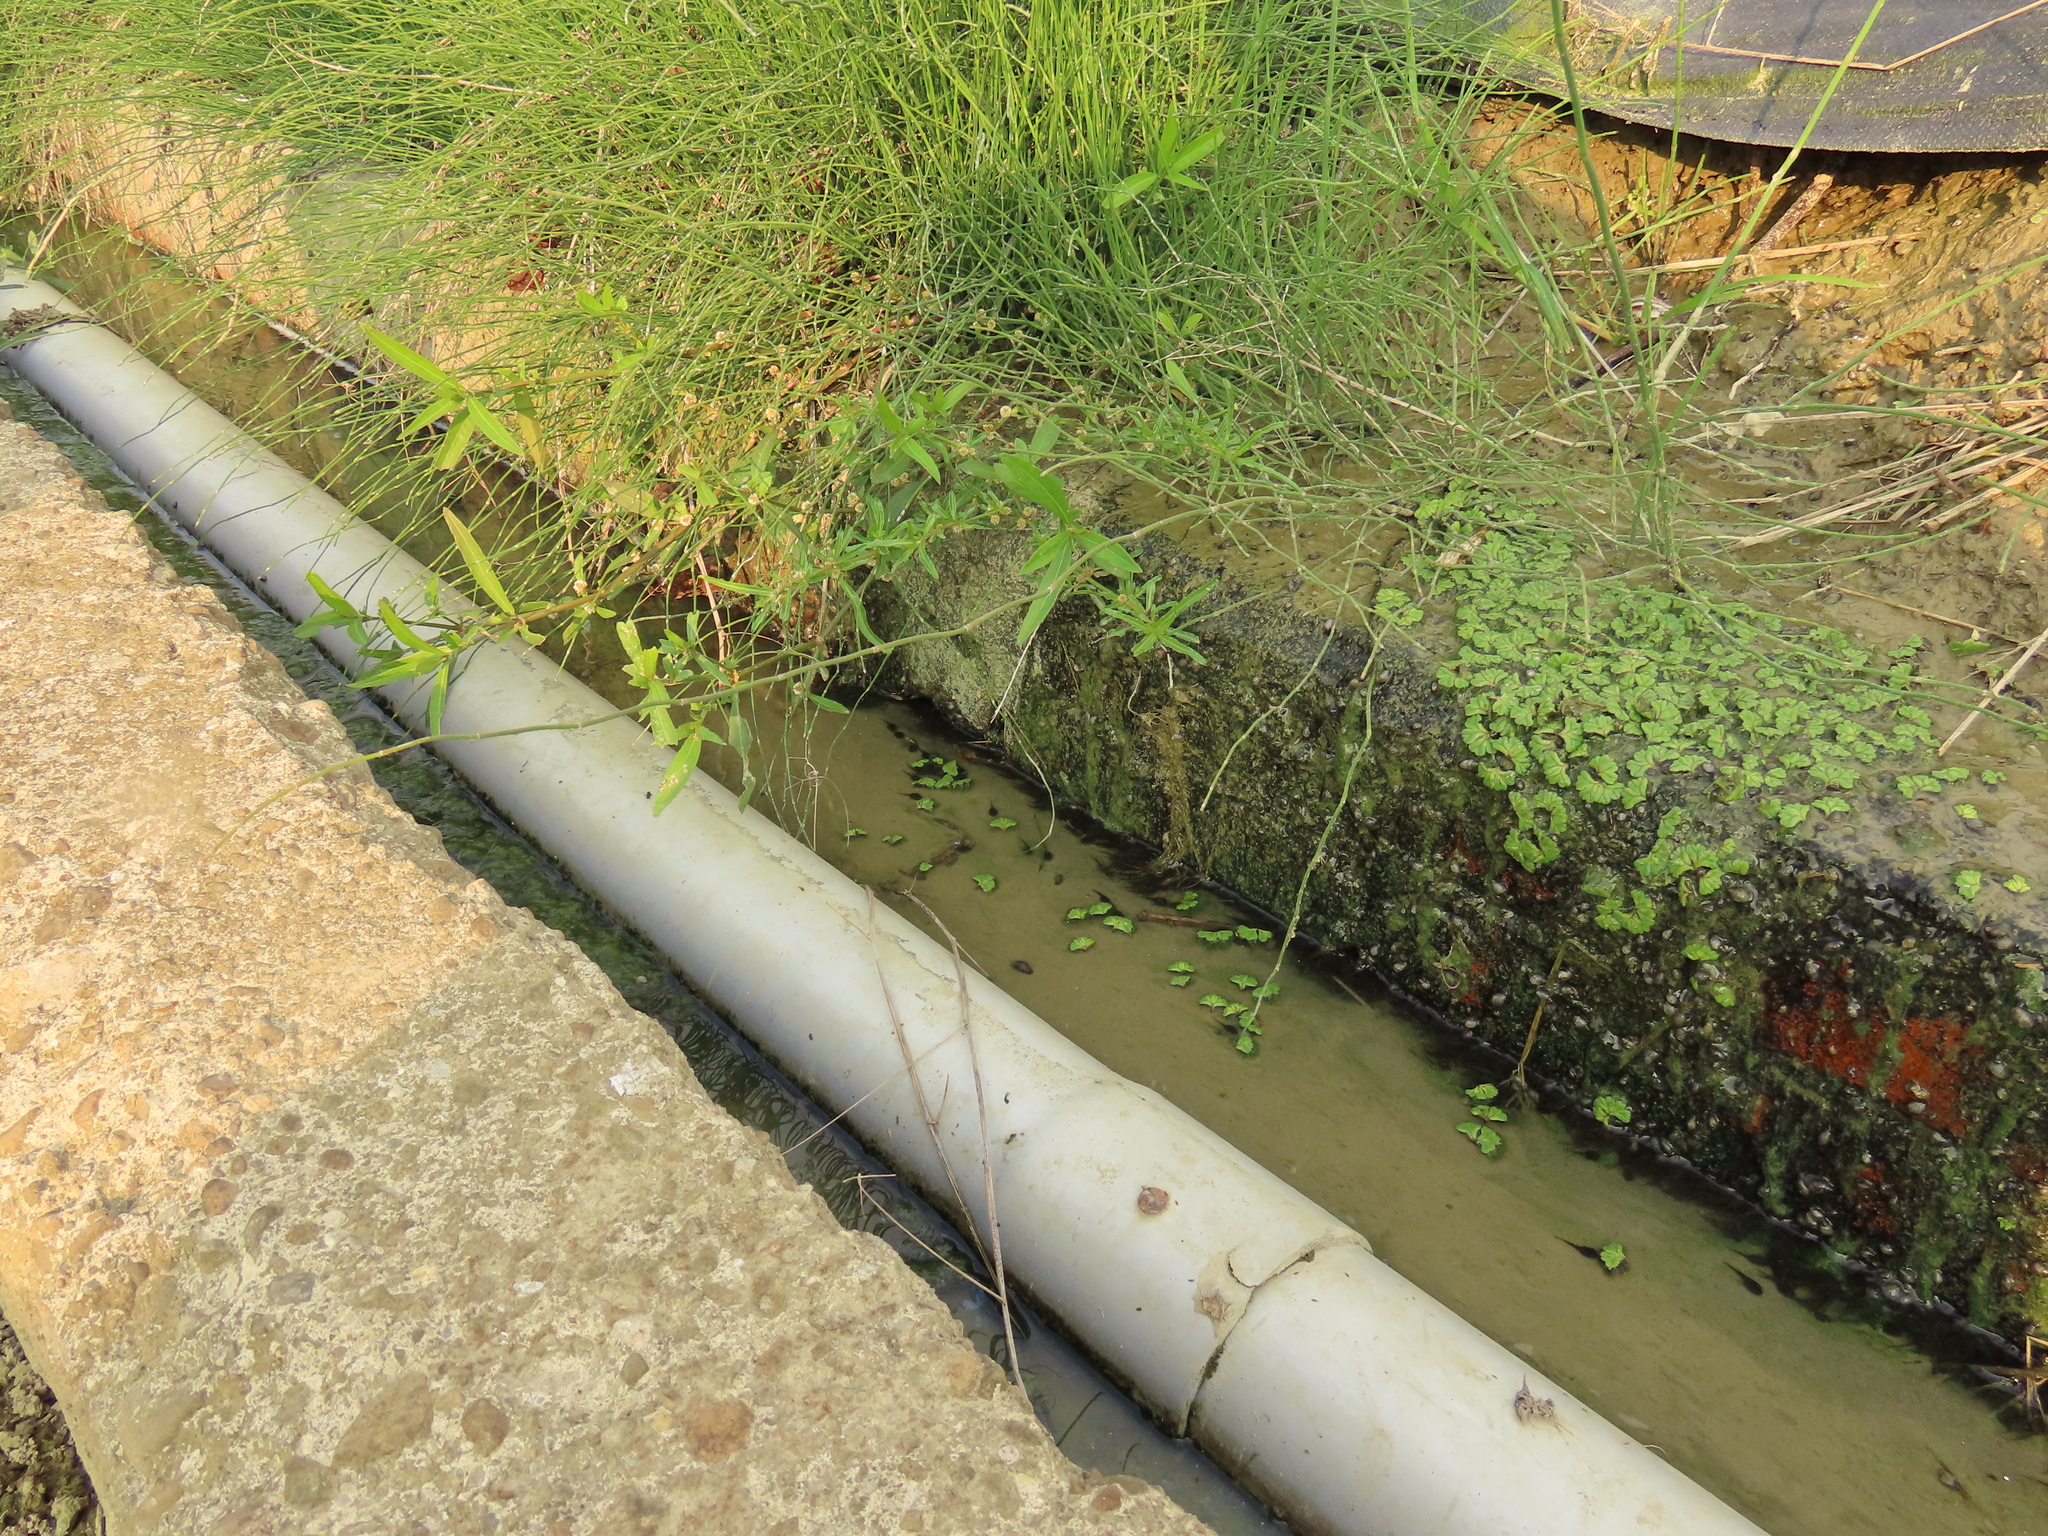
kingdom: Plantae
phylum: Marchantiophyta
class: Marchantiopsida
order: Marchantiales
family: Ricciaceae
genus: Ricciocarpos
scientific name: Ricciocarpos natans
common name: Purple-fringed liverwort
